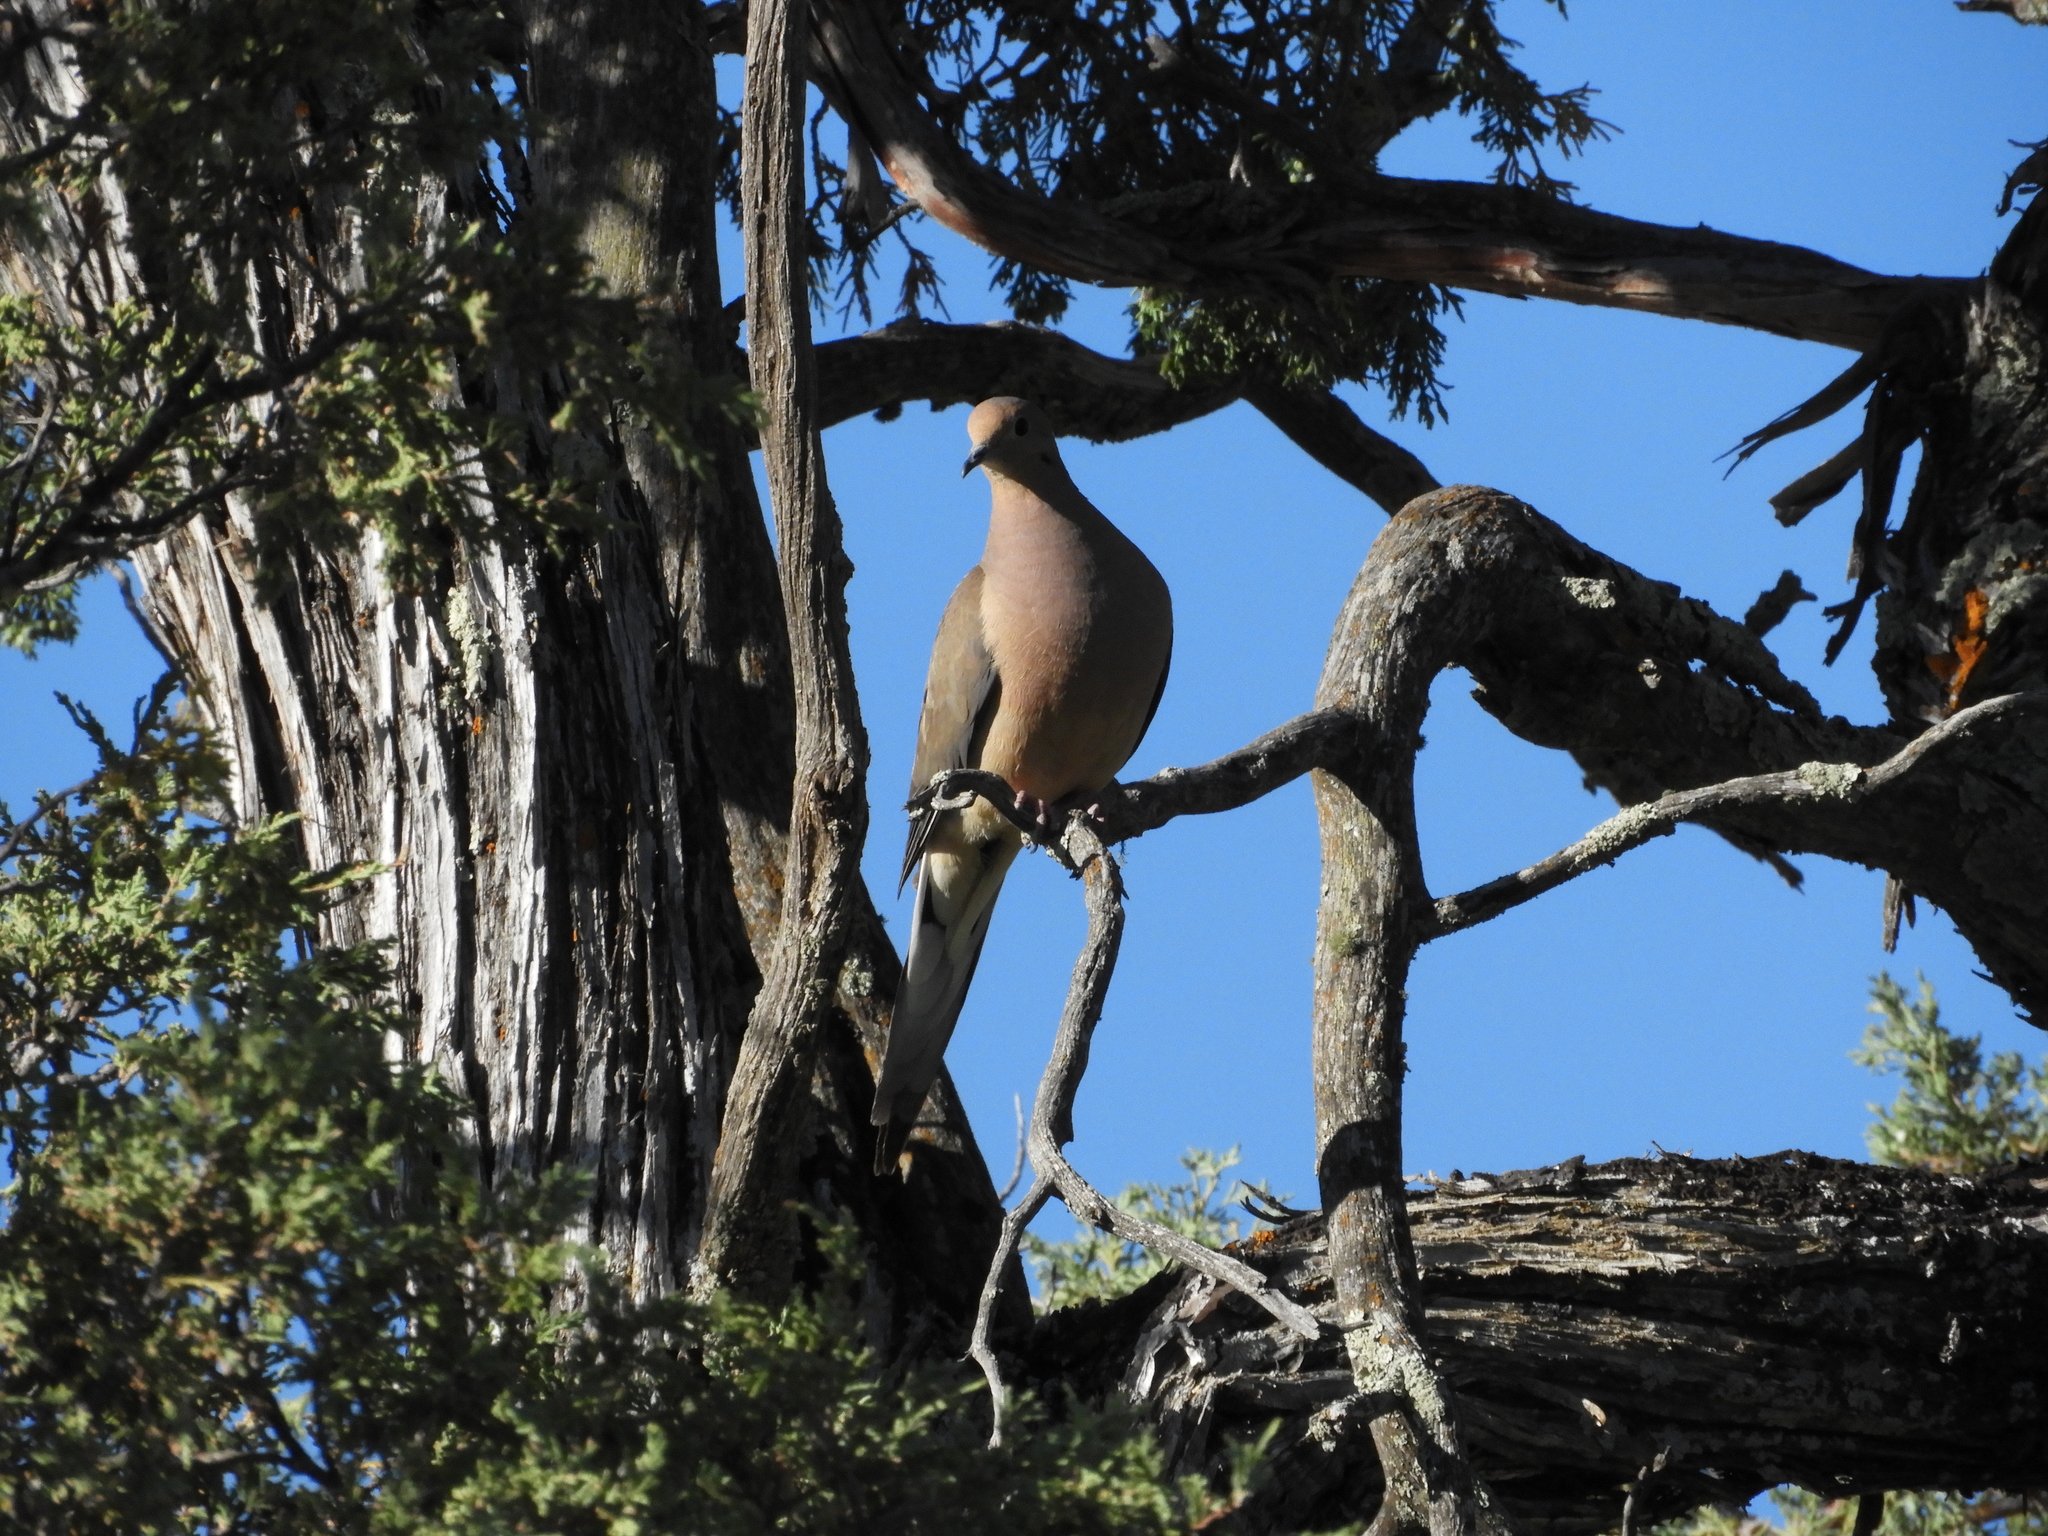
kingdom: Animalia
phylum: Chordata
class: Aves
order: Columbiformes
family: Columbidae
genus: Zenaida
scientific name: Zenaida macroura
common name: Mourning dove
